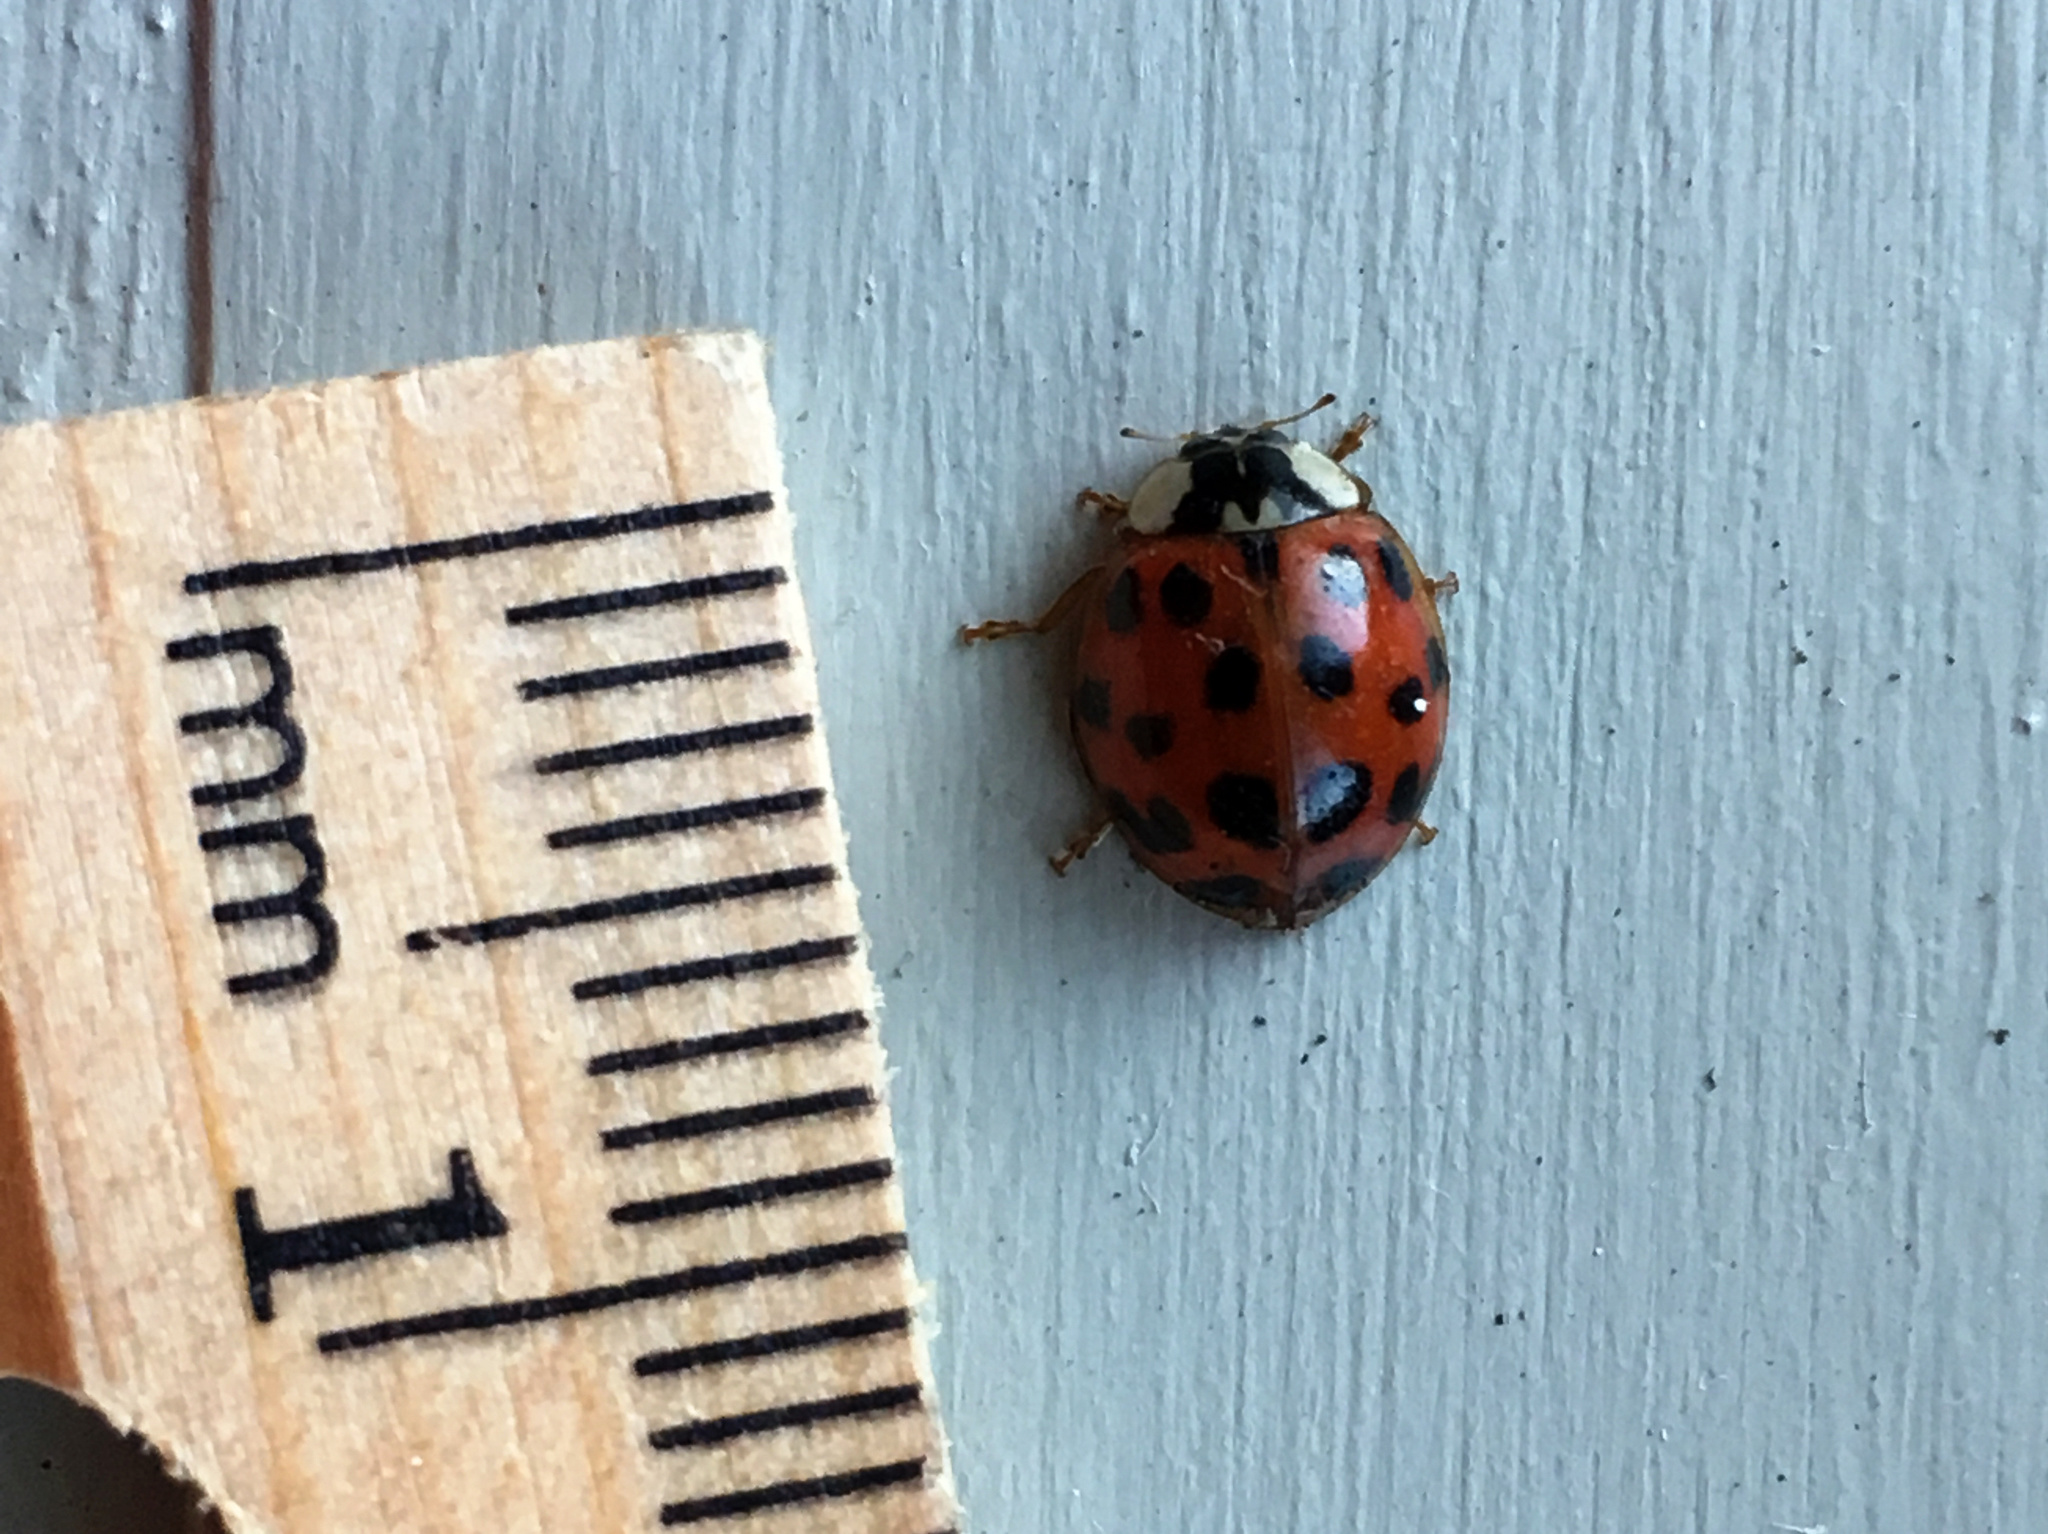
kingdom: Animalia
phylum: Arthropoda
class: Insecta
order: Coleoptera
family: Coccinellidae
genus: Harmonia
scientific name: Harmonia axyridis
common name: Harlequin ladybird
